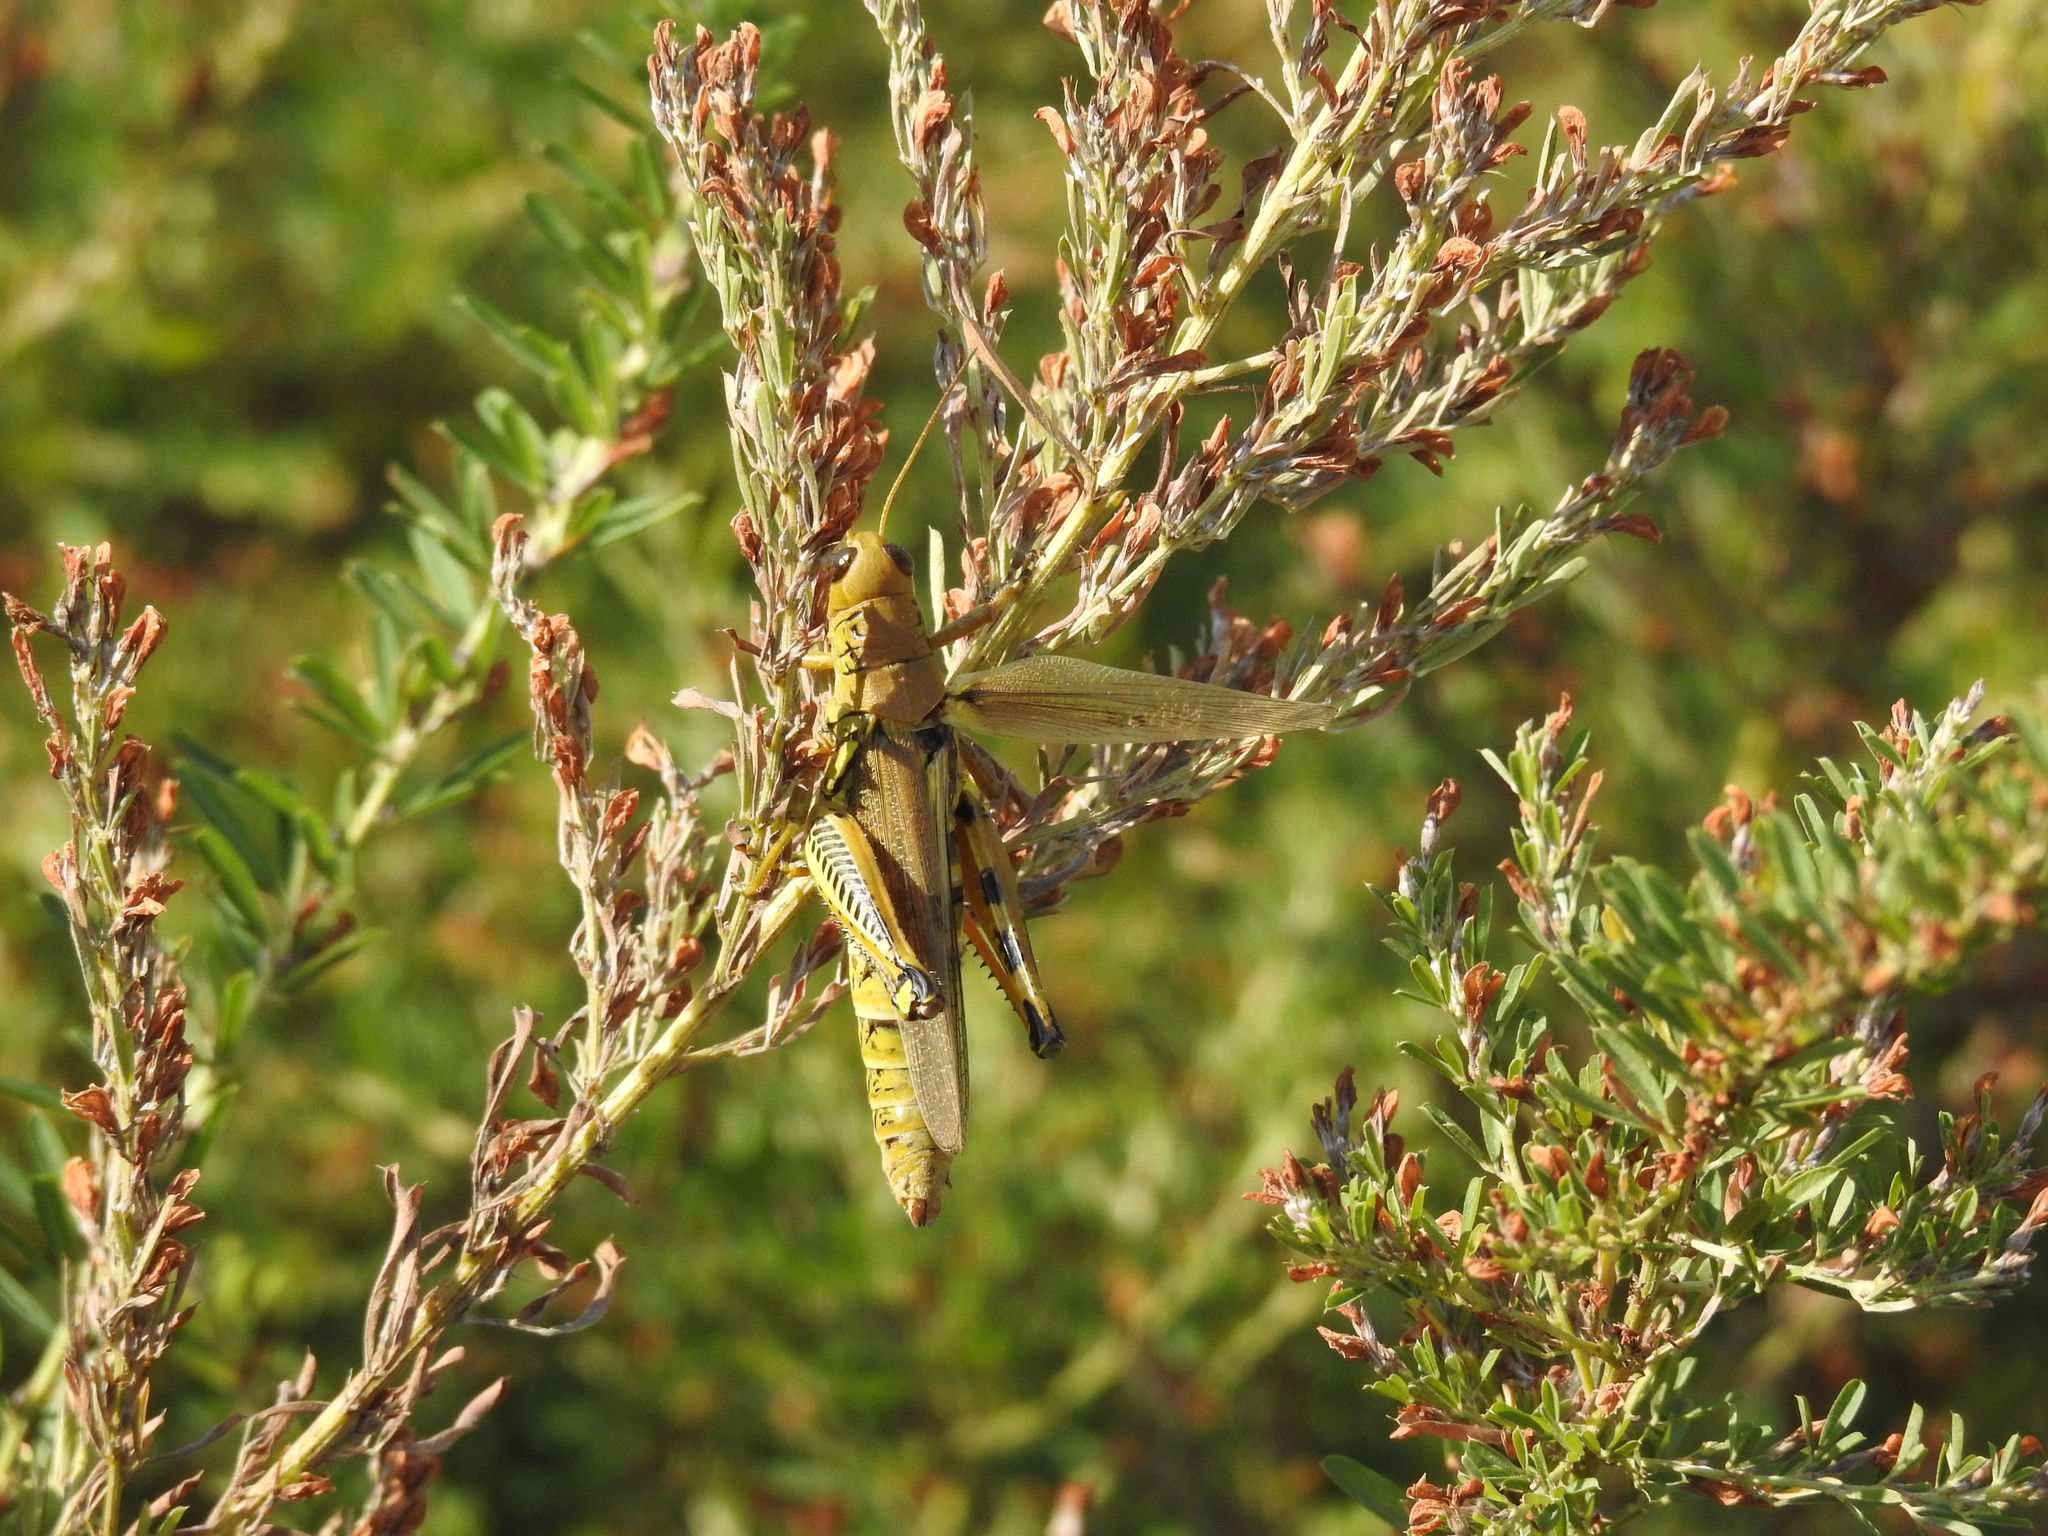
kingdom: Animalia
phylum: Arthropoda
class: Insecta
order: Orthoptera
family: Acrididae
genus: Melanoplus
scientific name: Melanoplus differentialis
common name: Differential grasshopper
